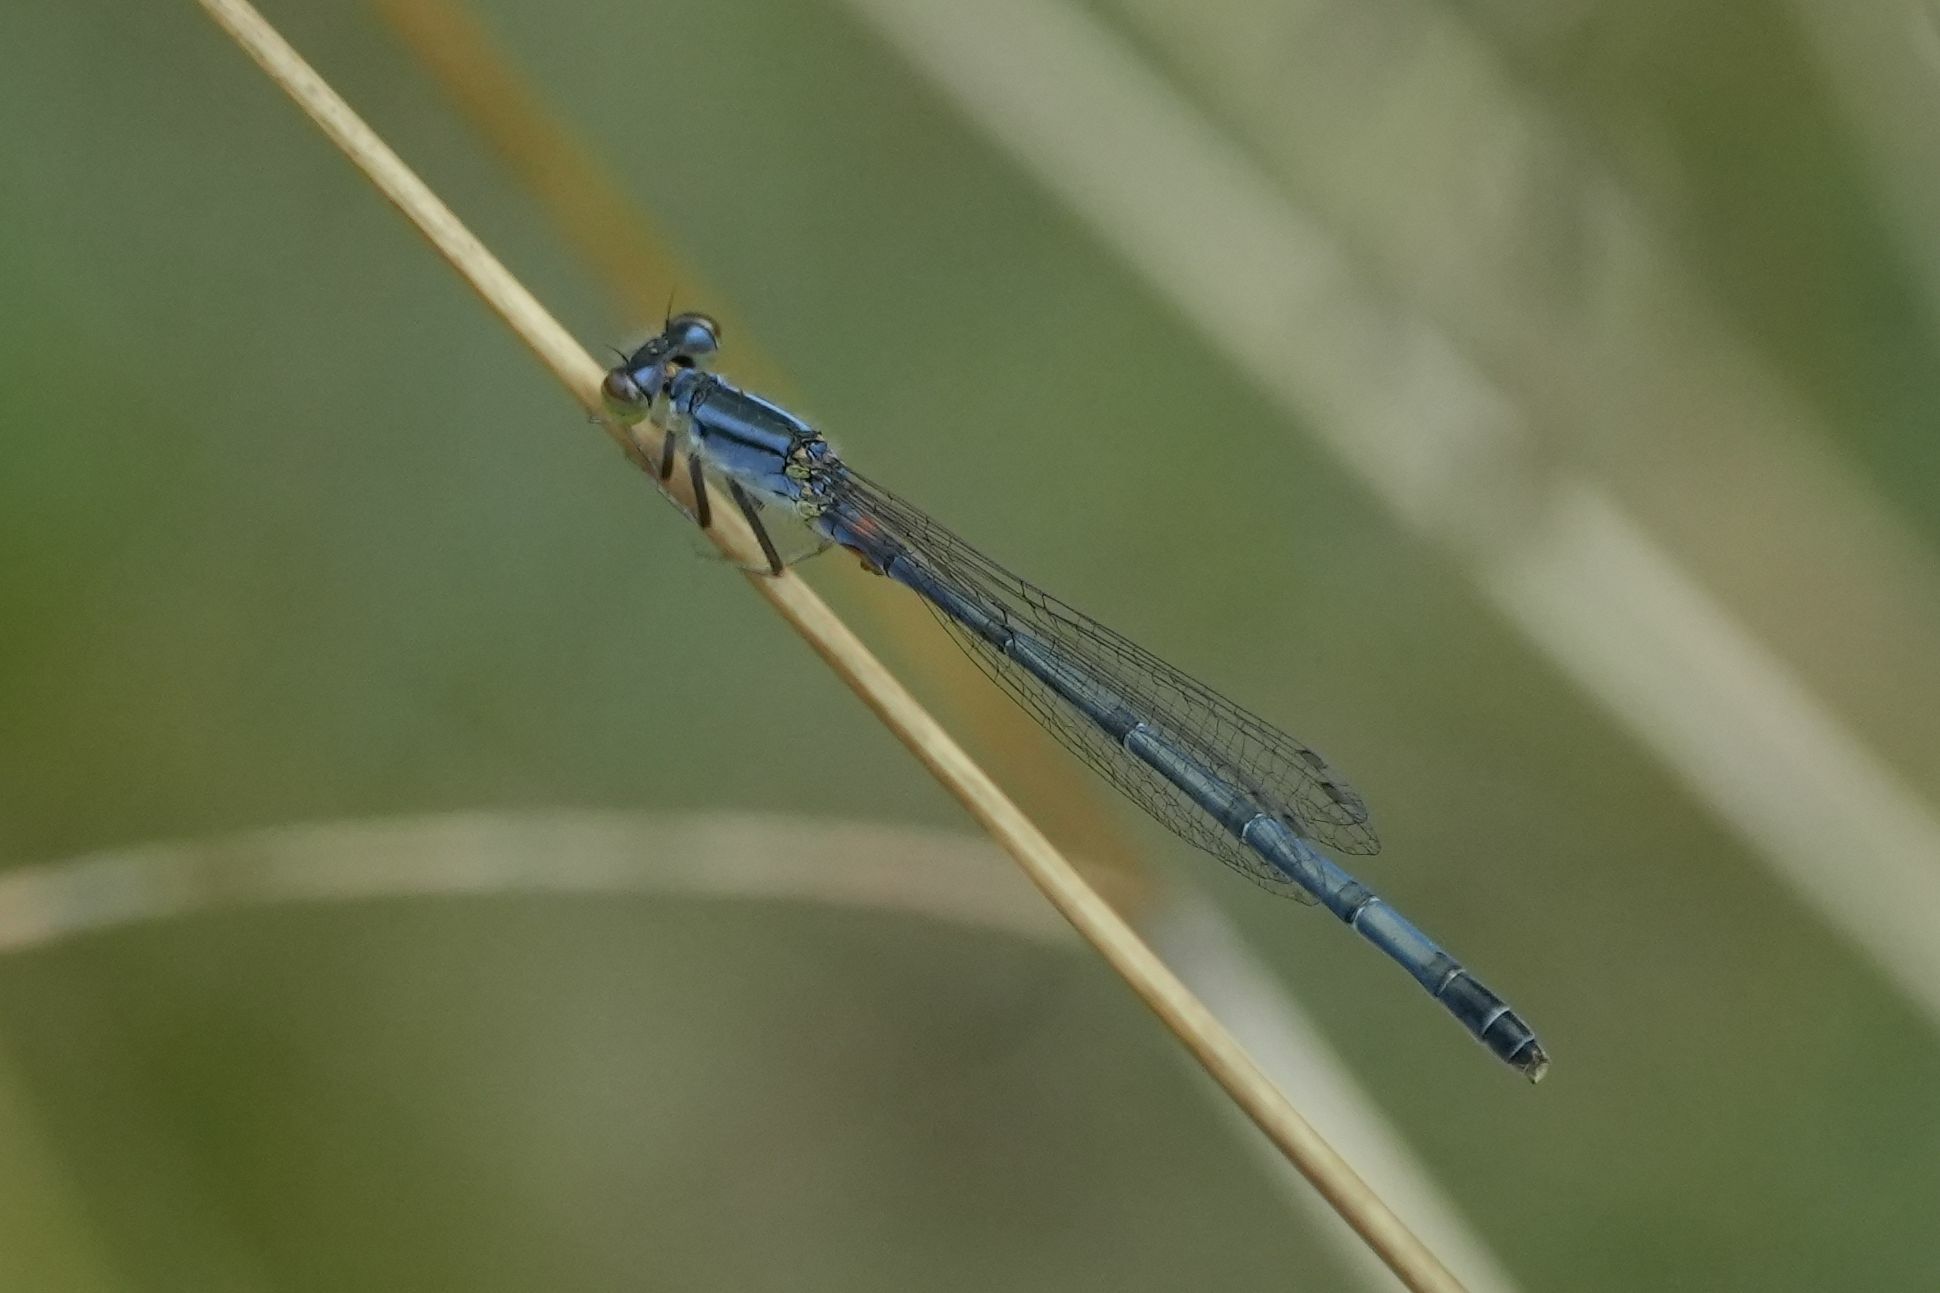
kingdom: Animalia
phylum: Arthropoda
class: Insecta
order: Odonata
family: Coenagrionidae
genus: Ischnura
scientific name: Ischnura verticalis
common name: Eastern forktail
